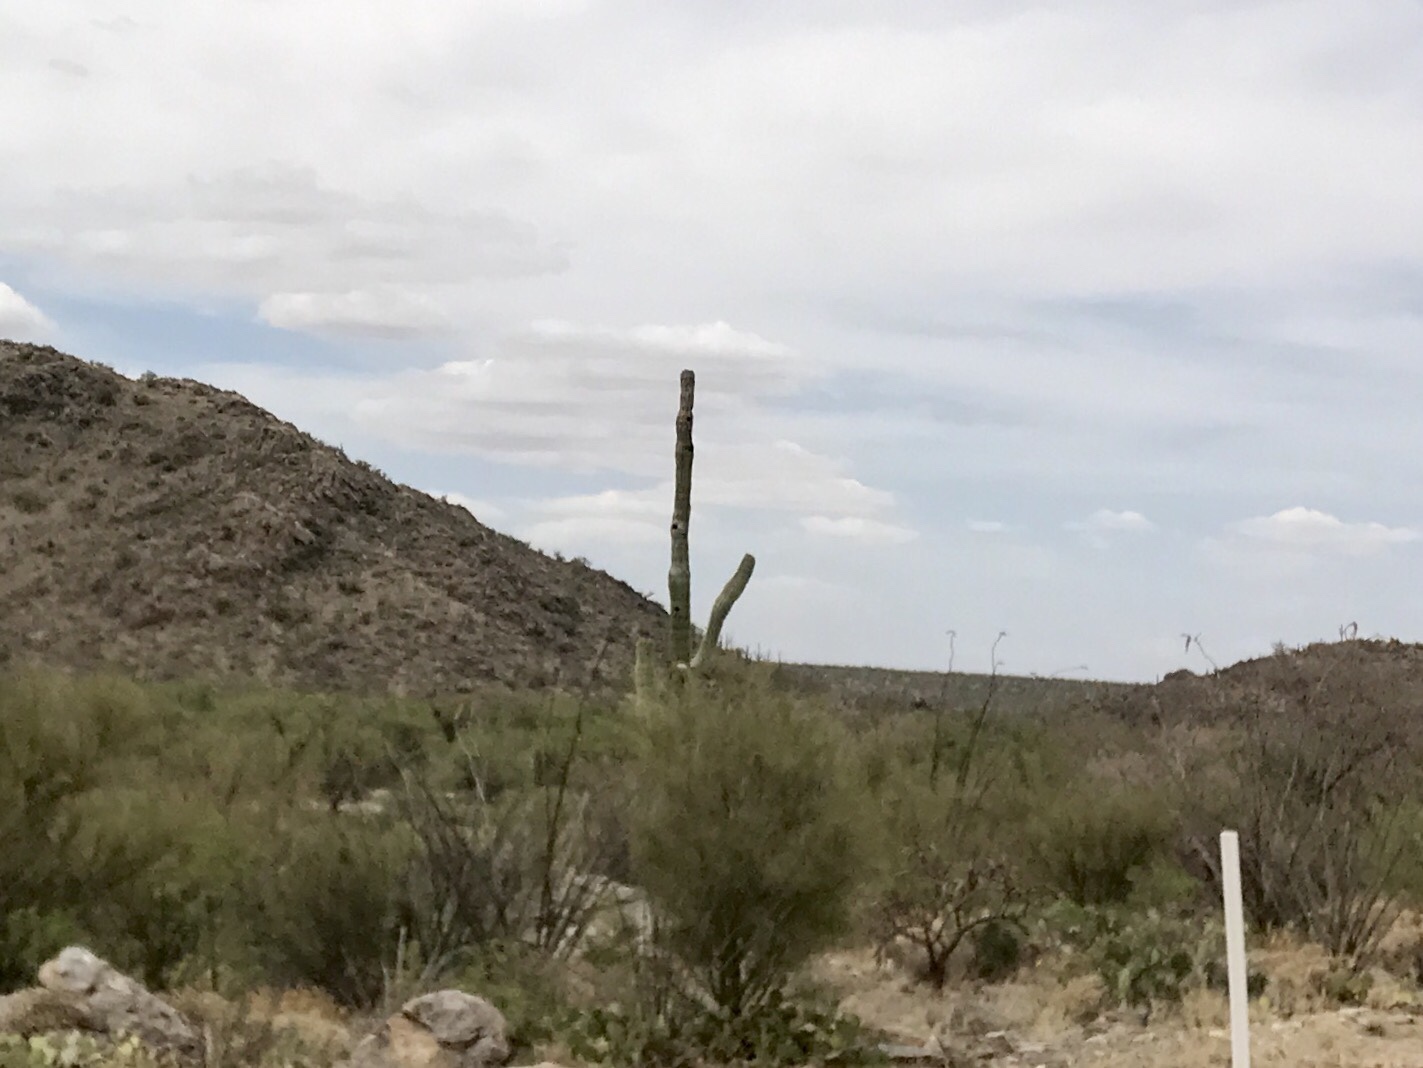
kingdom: Plantae
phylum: Tracheophyta
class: Magnoliopsida
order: Caryophyllales
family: Cactaceae
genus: Carnegiea
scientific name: Carnegiea gigantea
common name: Saguaro
